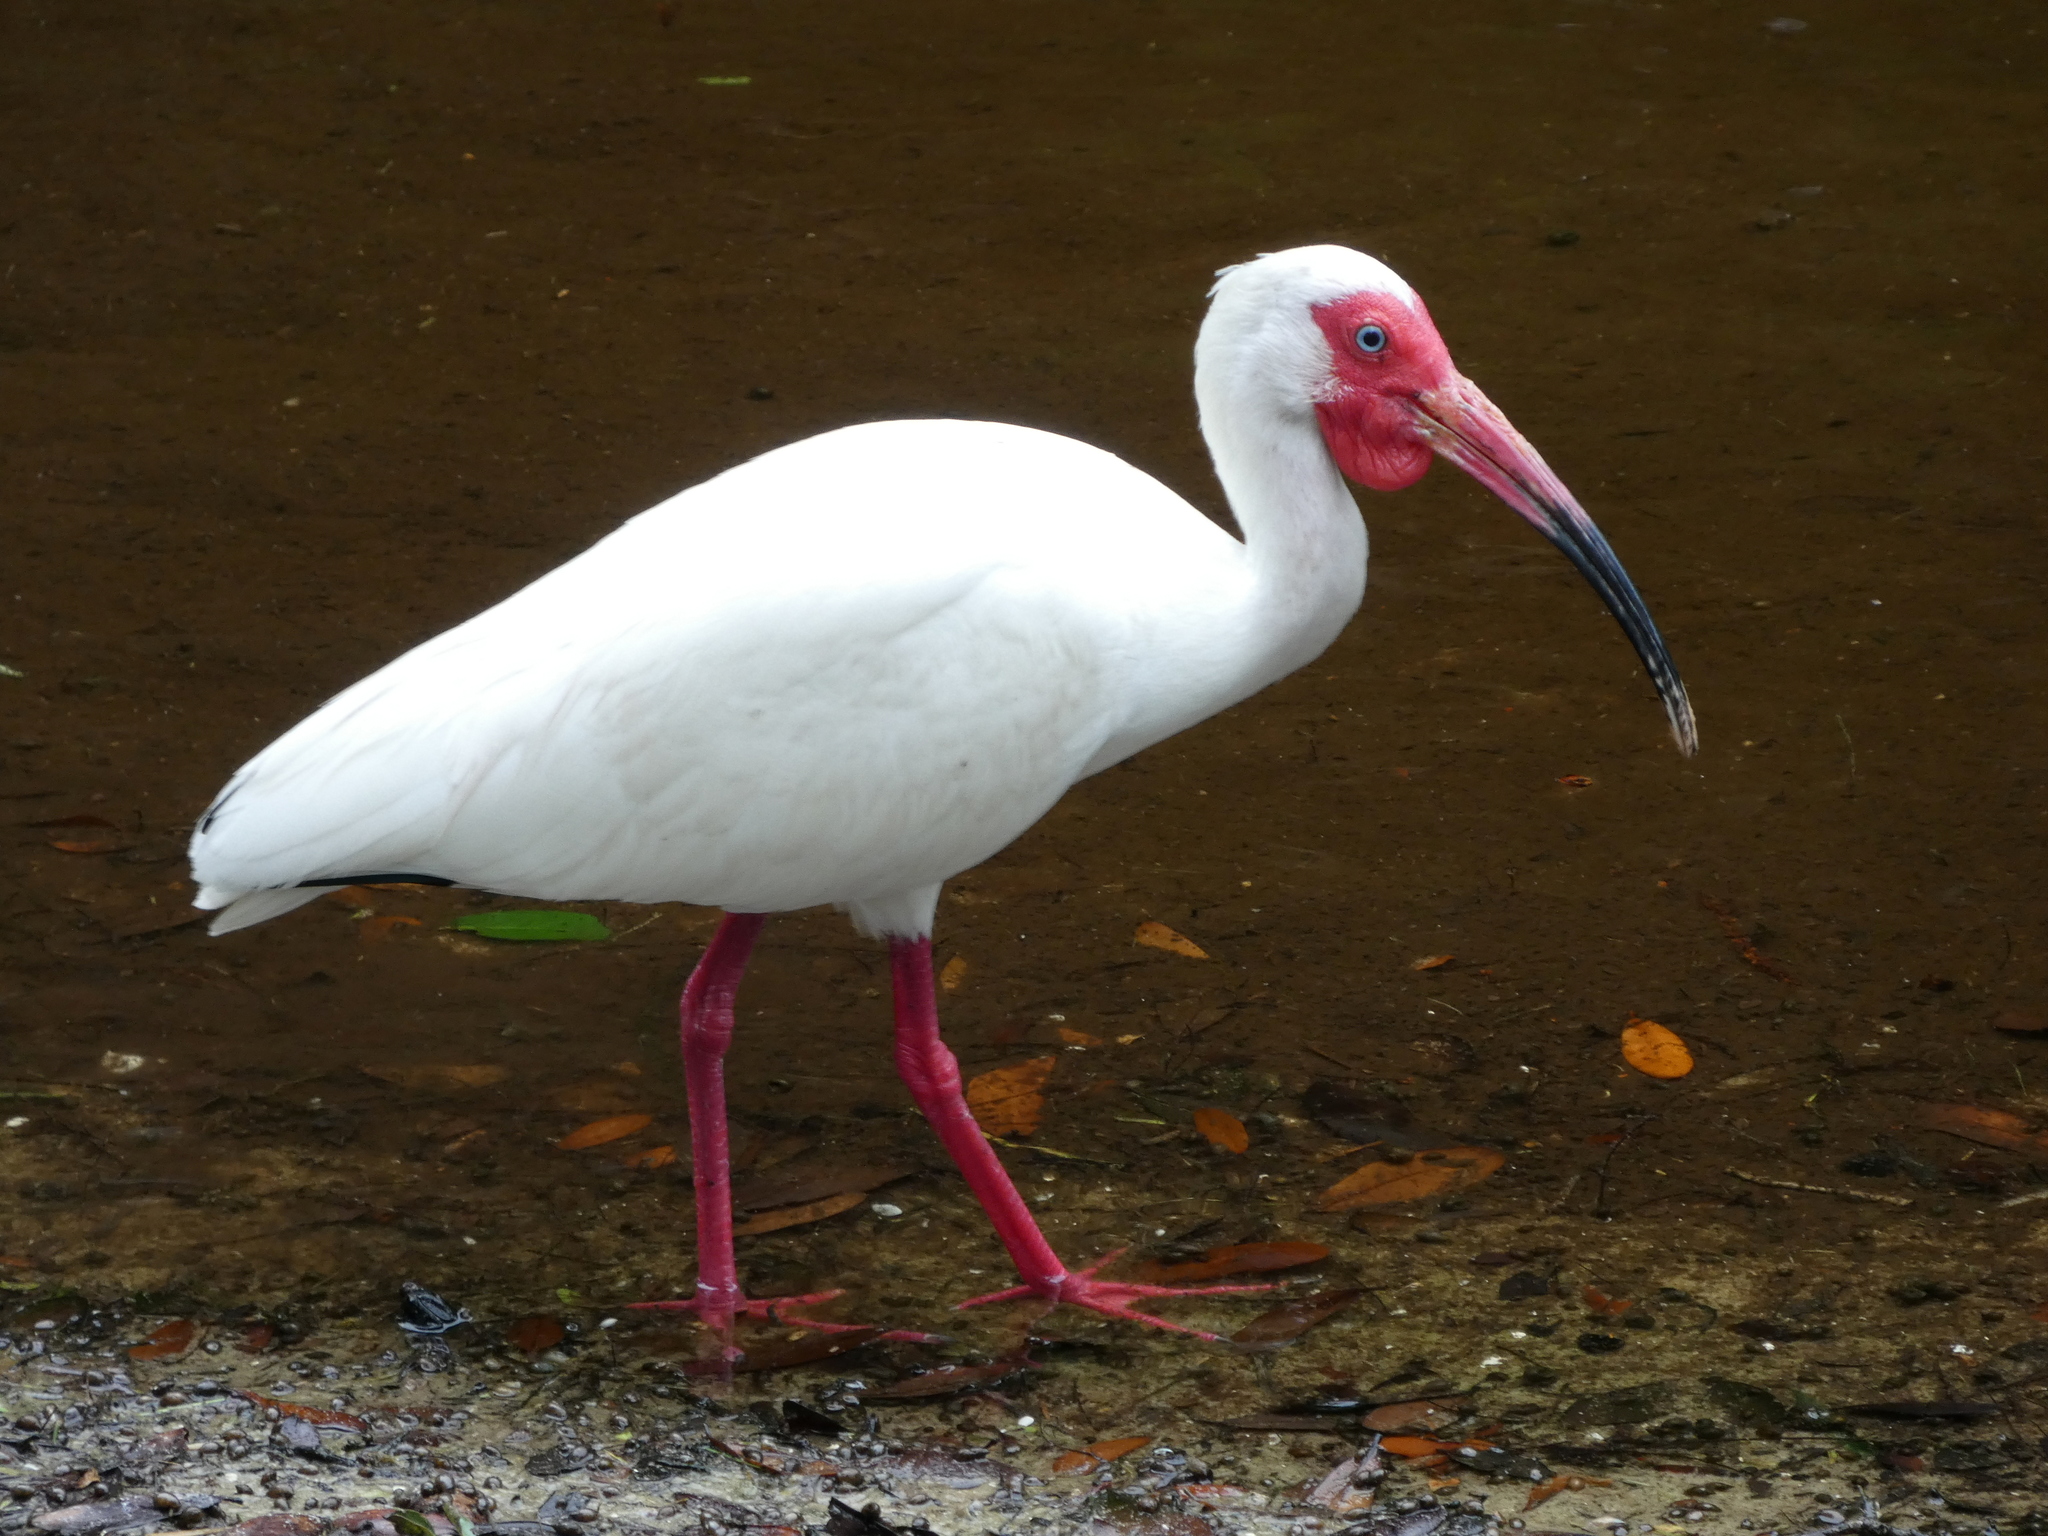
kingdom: Animalia
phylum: Chordata
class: Aves
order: Pelecaniformes
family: Threskiornithidae
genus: Eudocimus
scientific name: Eudocimus albus
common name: White ibis
